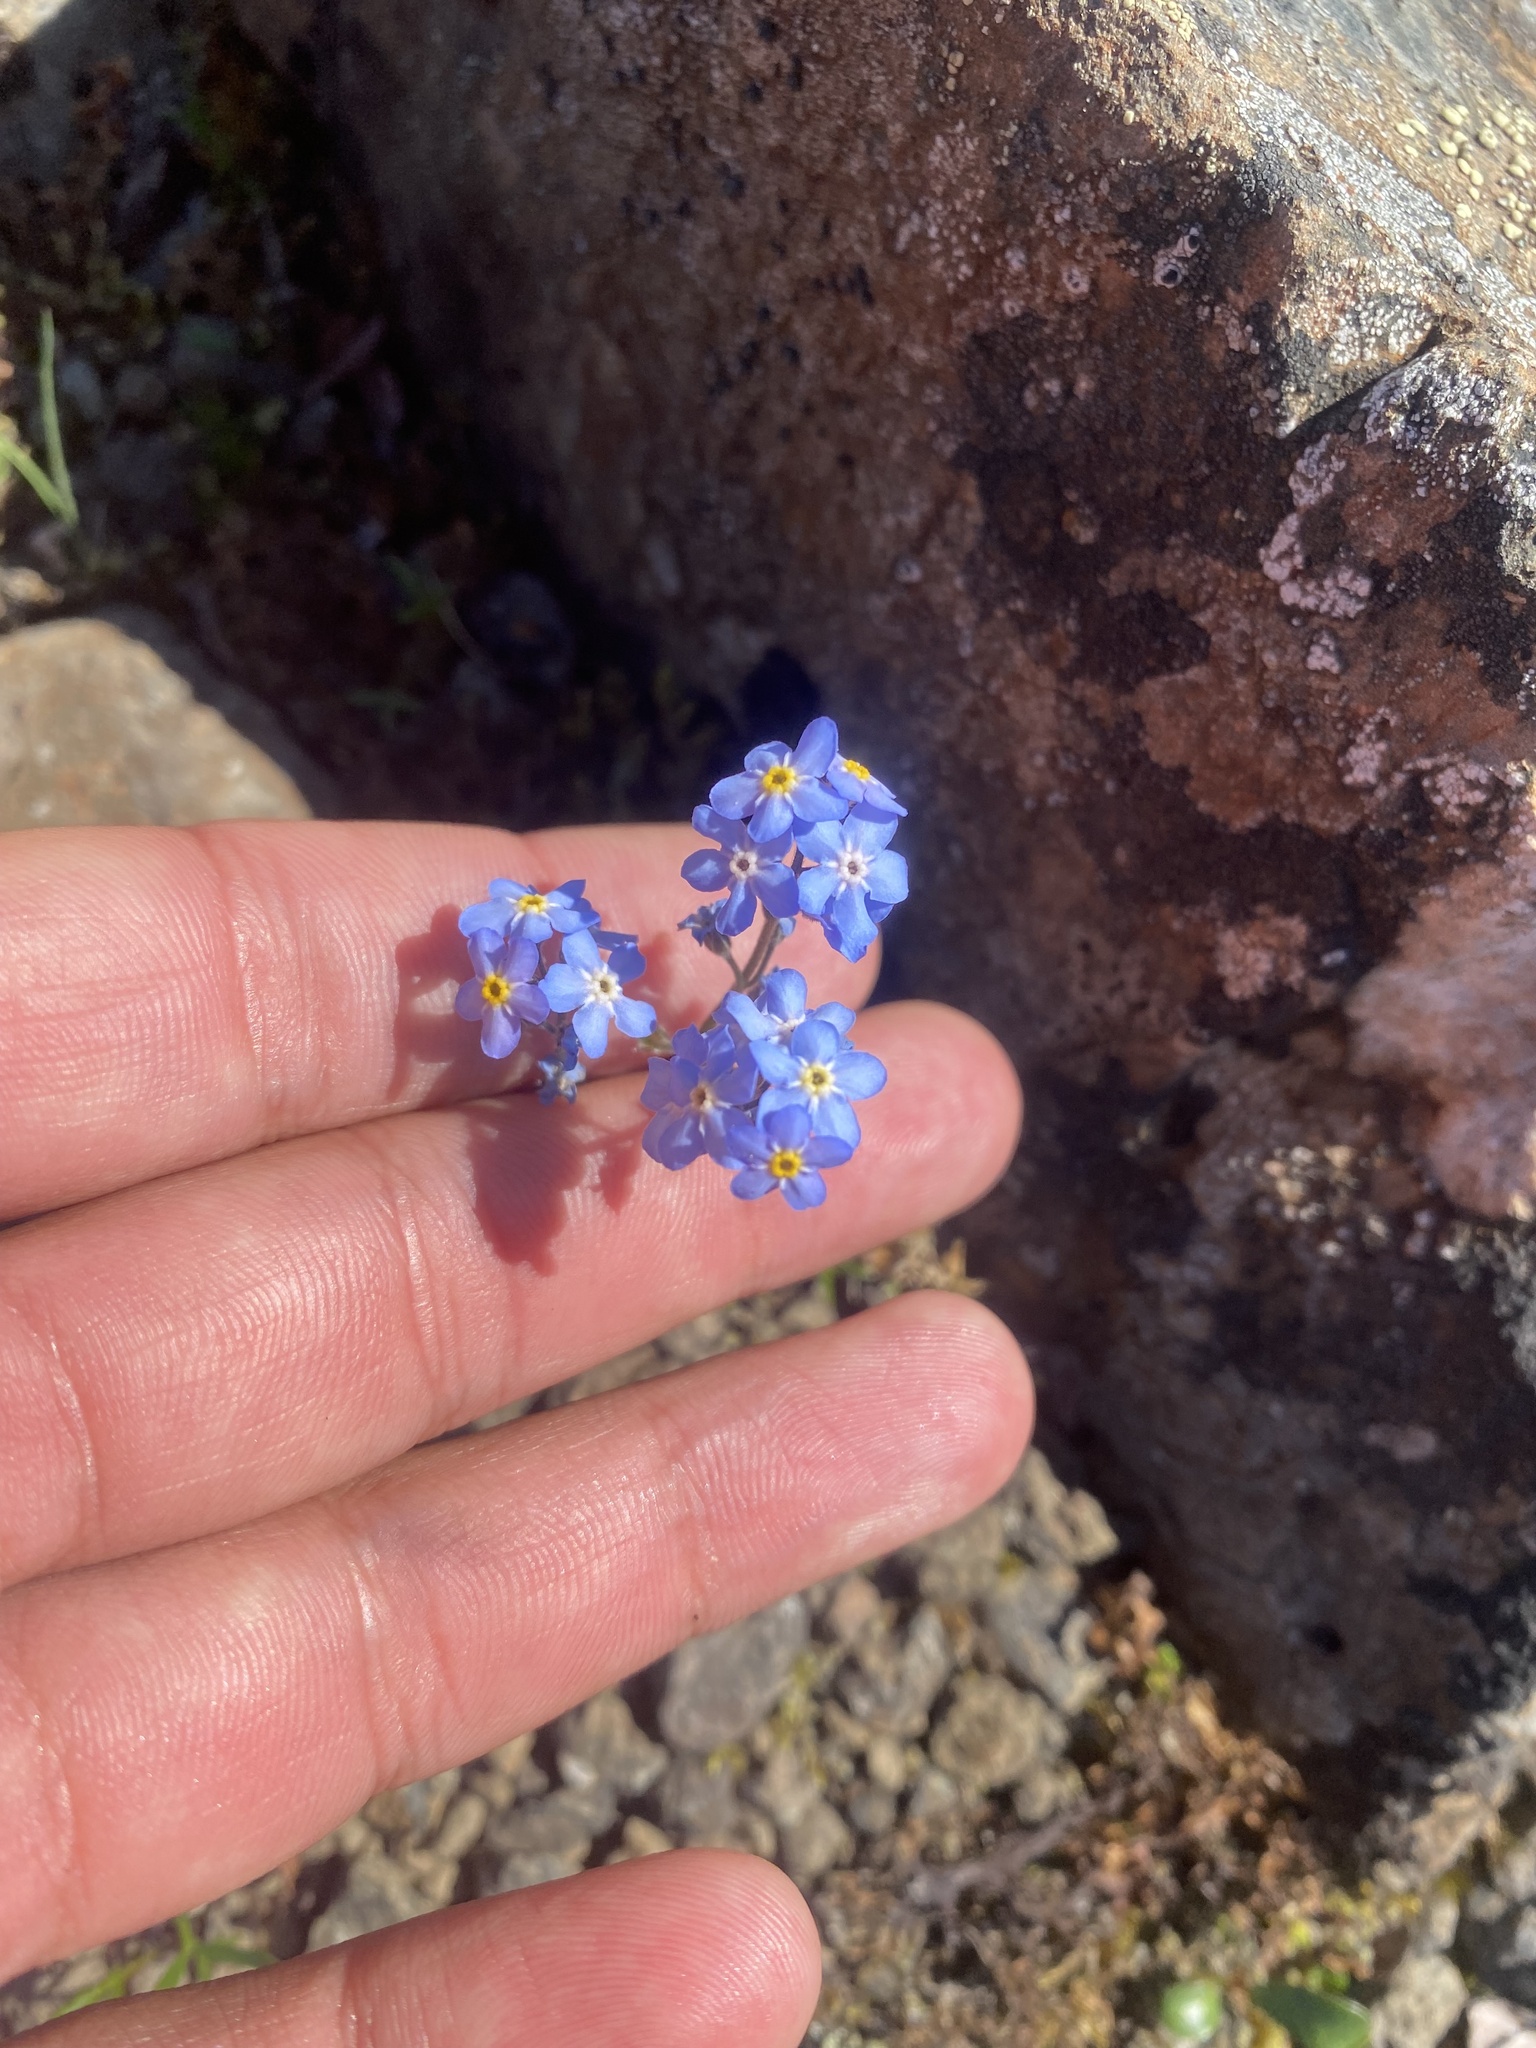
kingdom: Plantae
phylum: Tracheophyta
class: Magnoliopsida
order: Boraginales
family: Boraginaceae
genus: Myosotis
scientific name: Myosotis asiatica
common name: Asian forget-me-not
